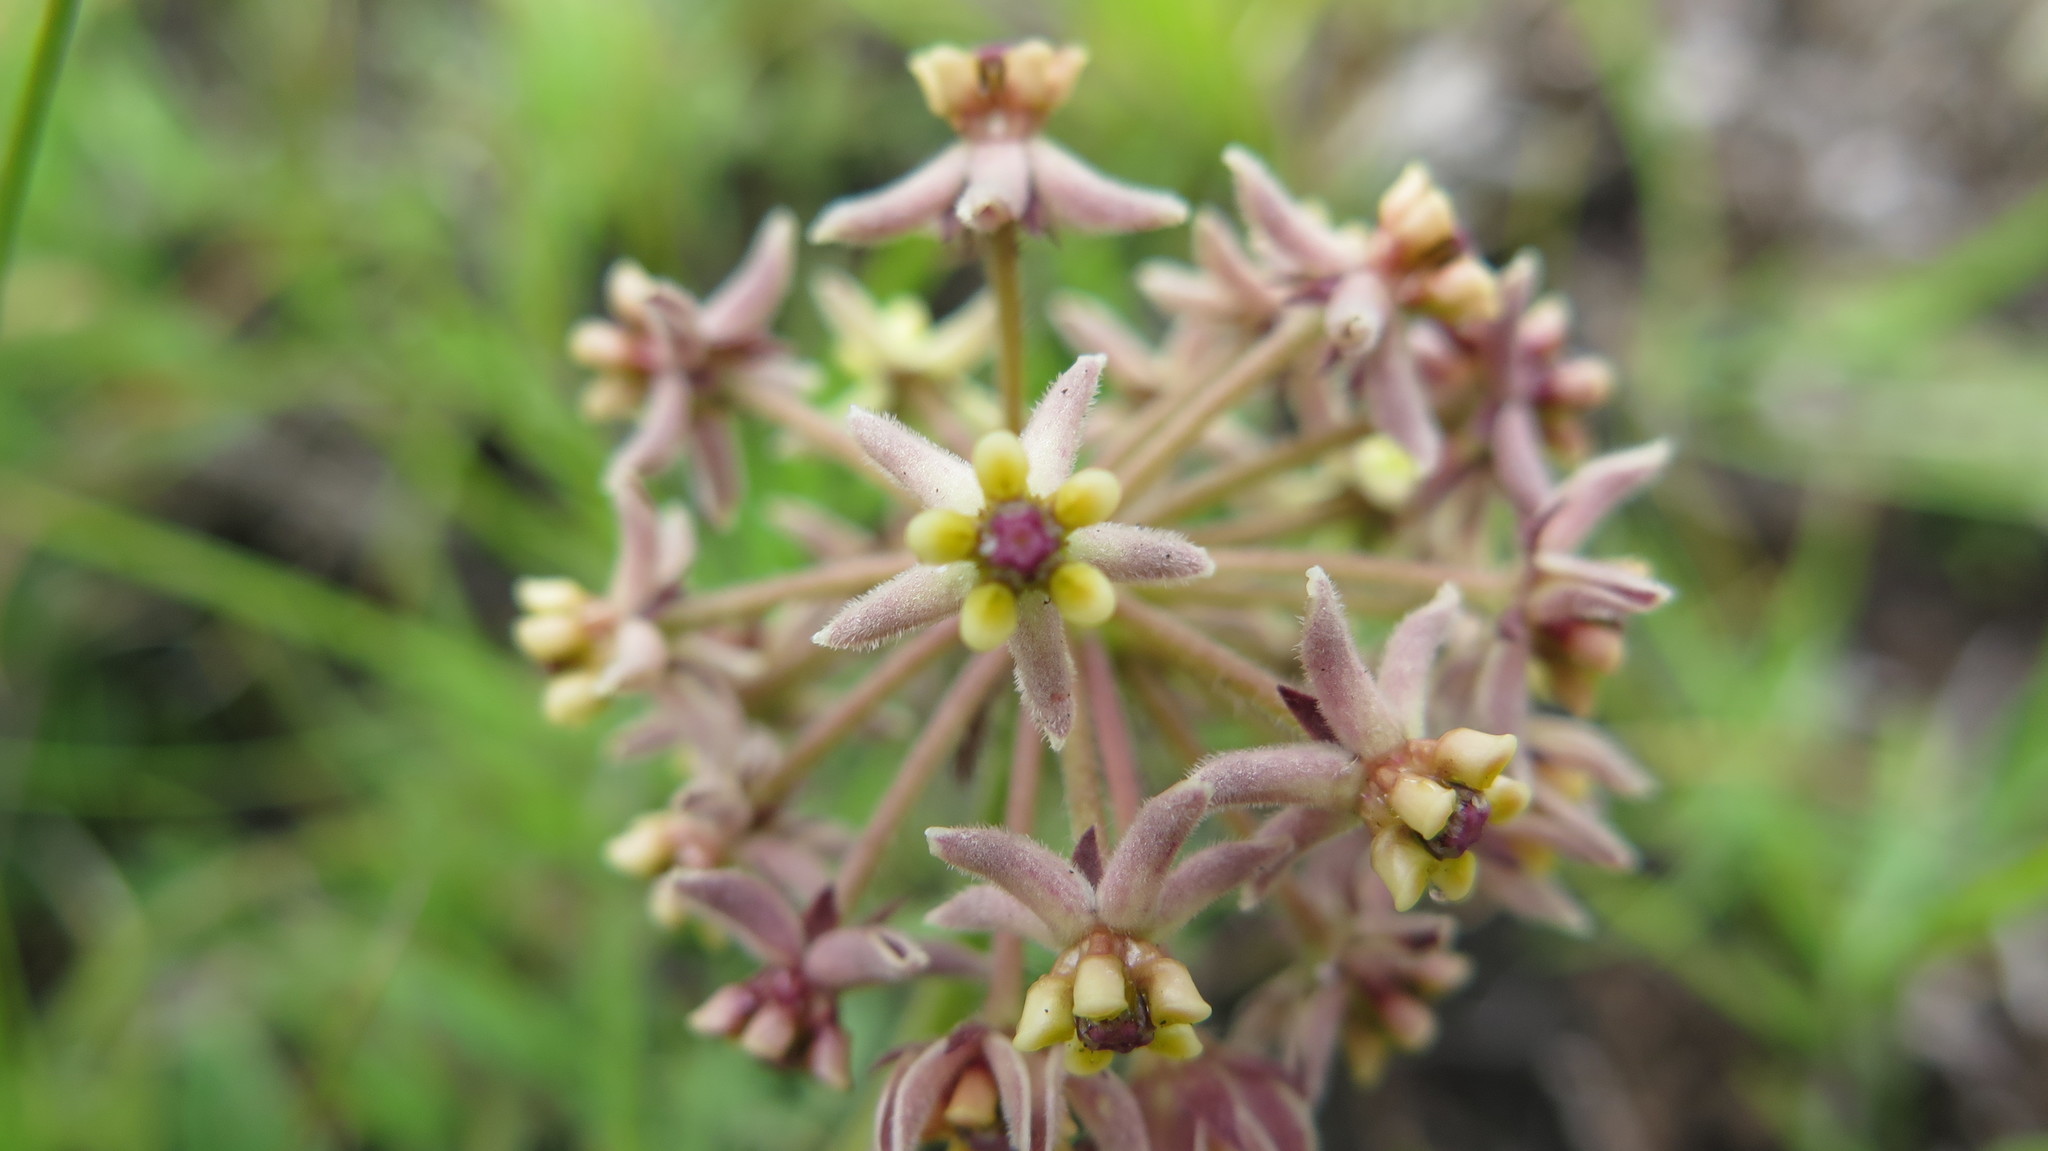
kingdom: Plantae
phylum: Tracheophyta
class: Magnoliopsida
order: Gentianales
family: Apocynaceae
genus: Asclepias
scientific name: Asclepias vicaria
